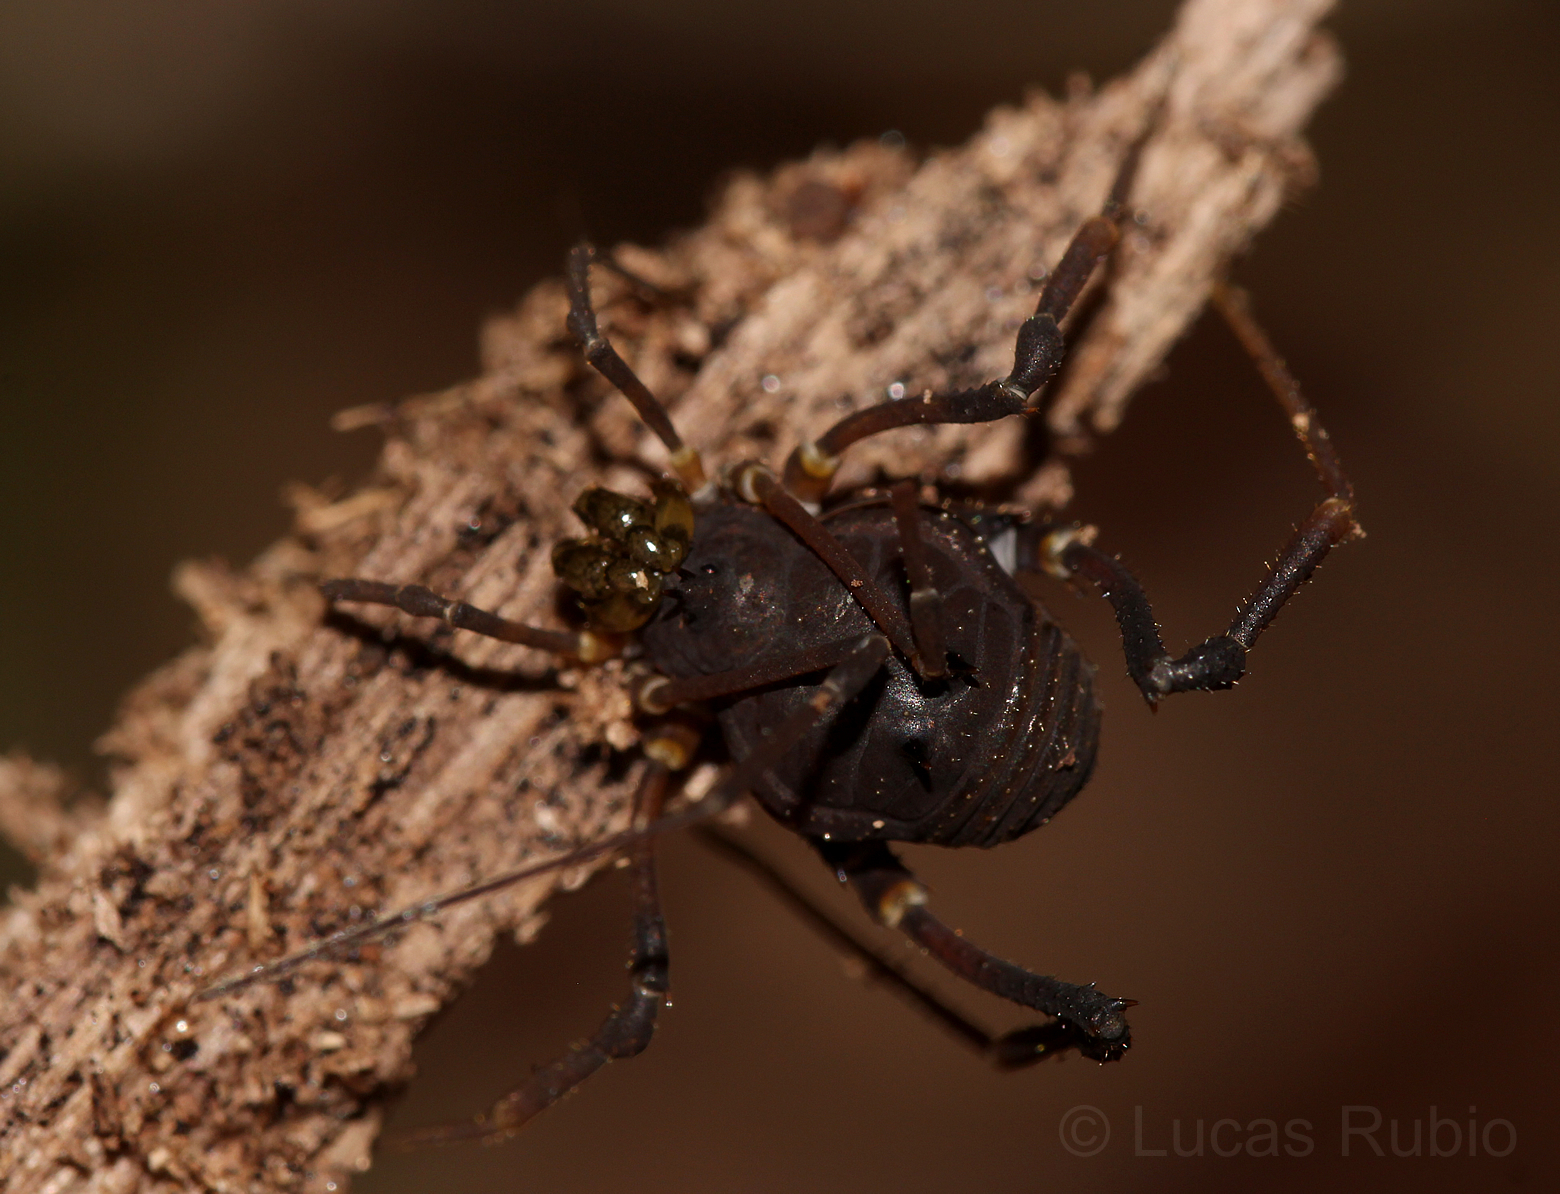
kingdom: Animalia
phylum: Arthropoda
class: Arachnida
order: Opiliones
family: Gonyleptidae
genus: Opisthoplatus
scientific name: Opisthoplatus vegetus
